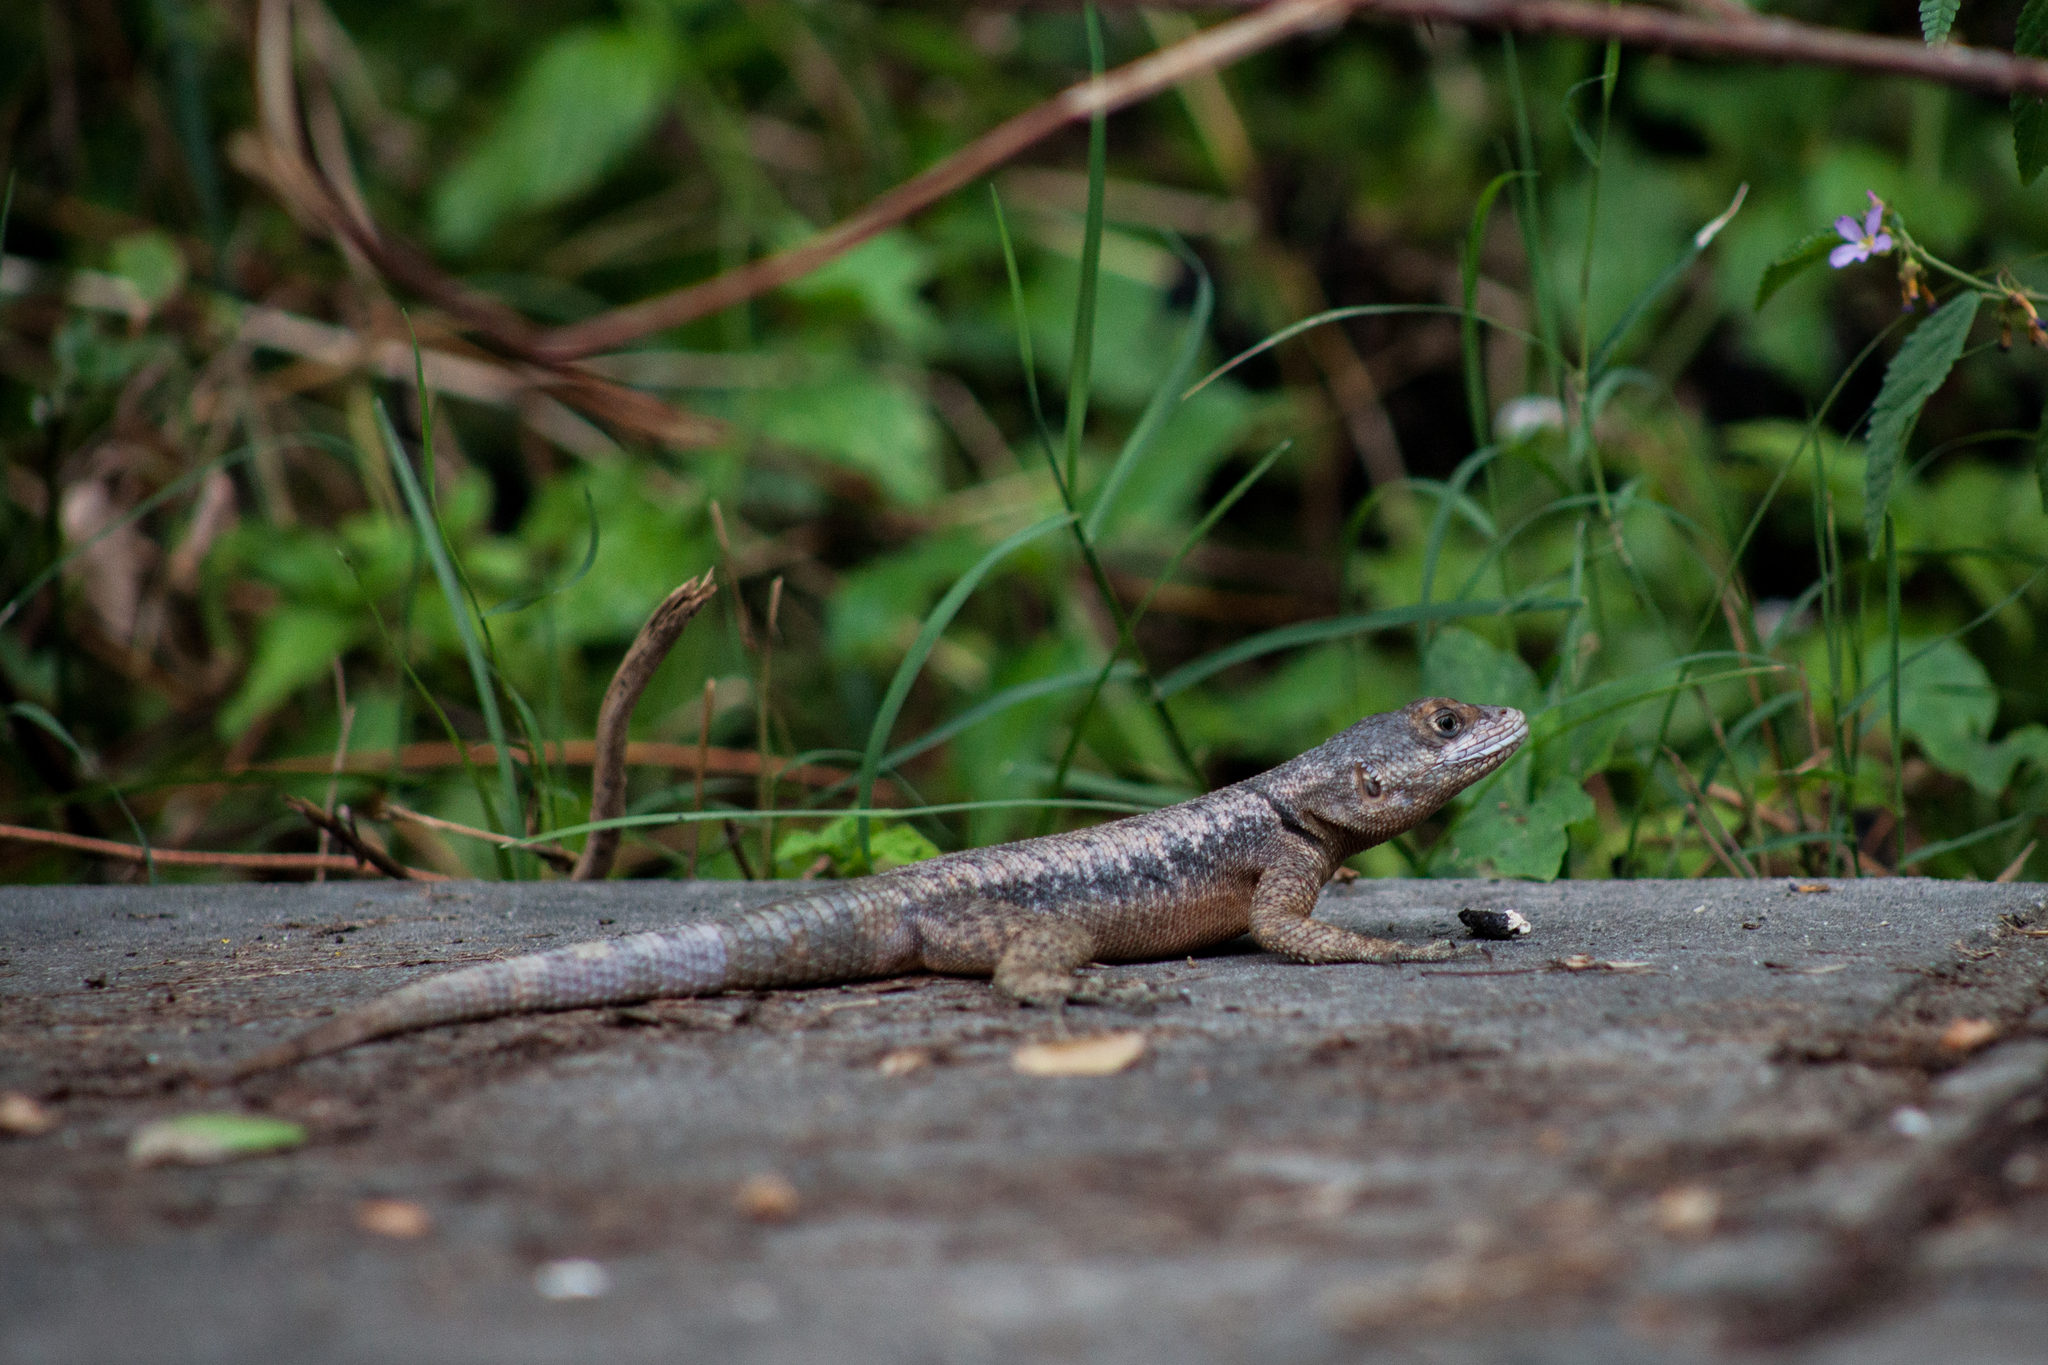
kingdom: Animalia
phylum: Chordata
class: Squamata
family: Tropiduridae
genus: Tropidurus
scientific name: Tropidurus hispidus
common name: Peters' lava lizard
